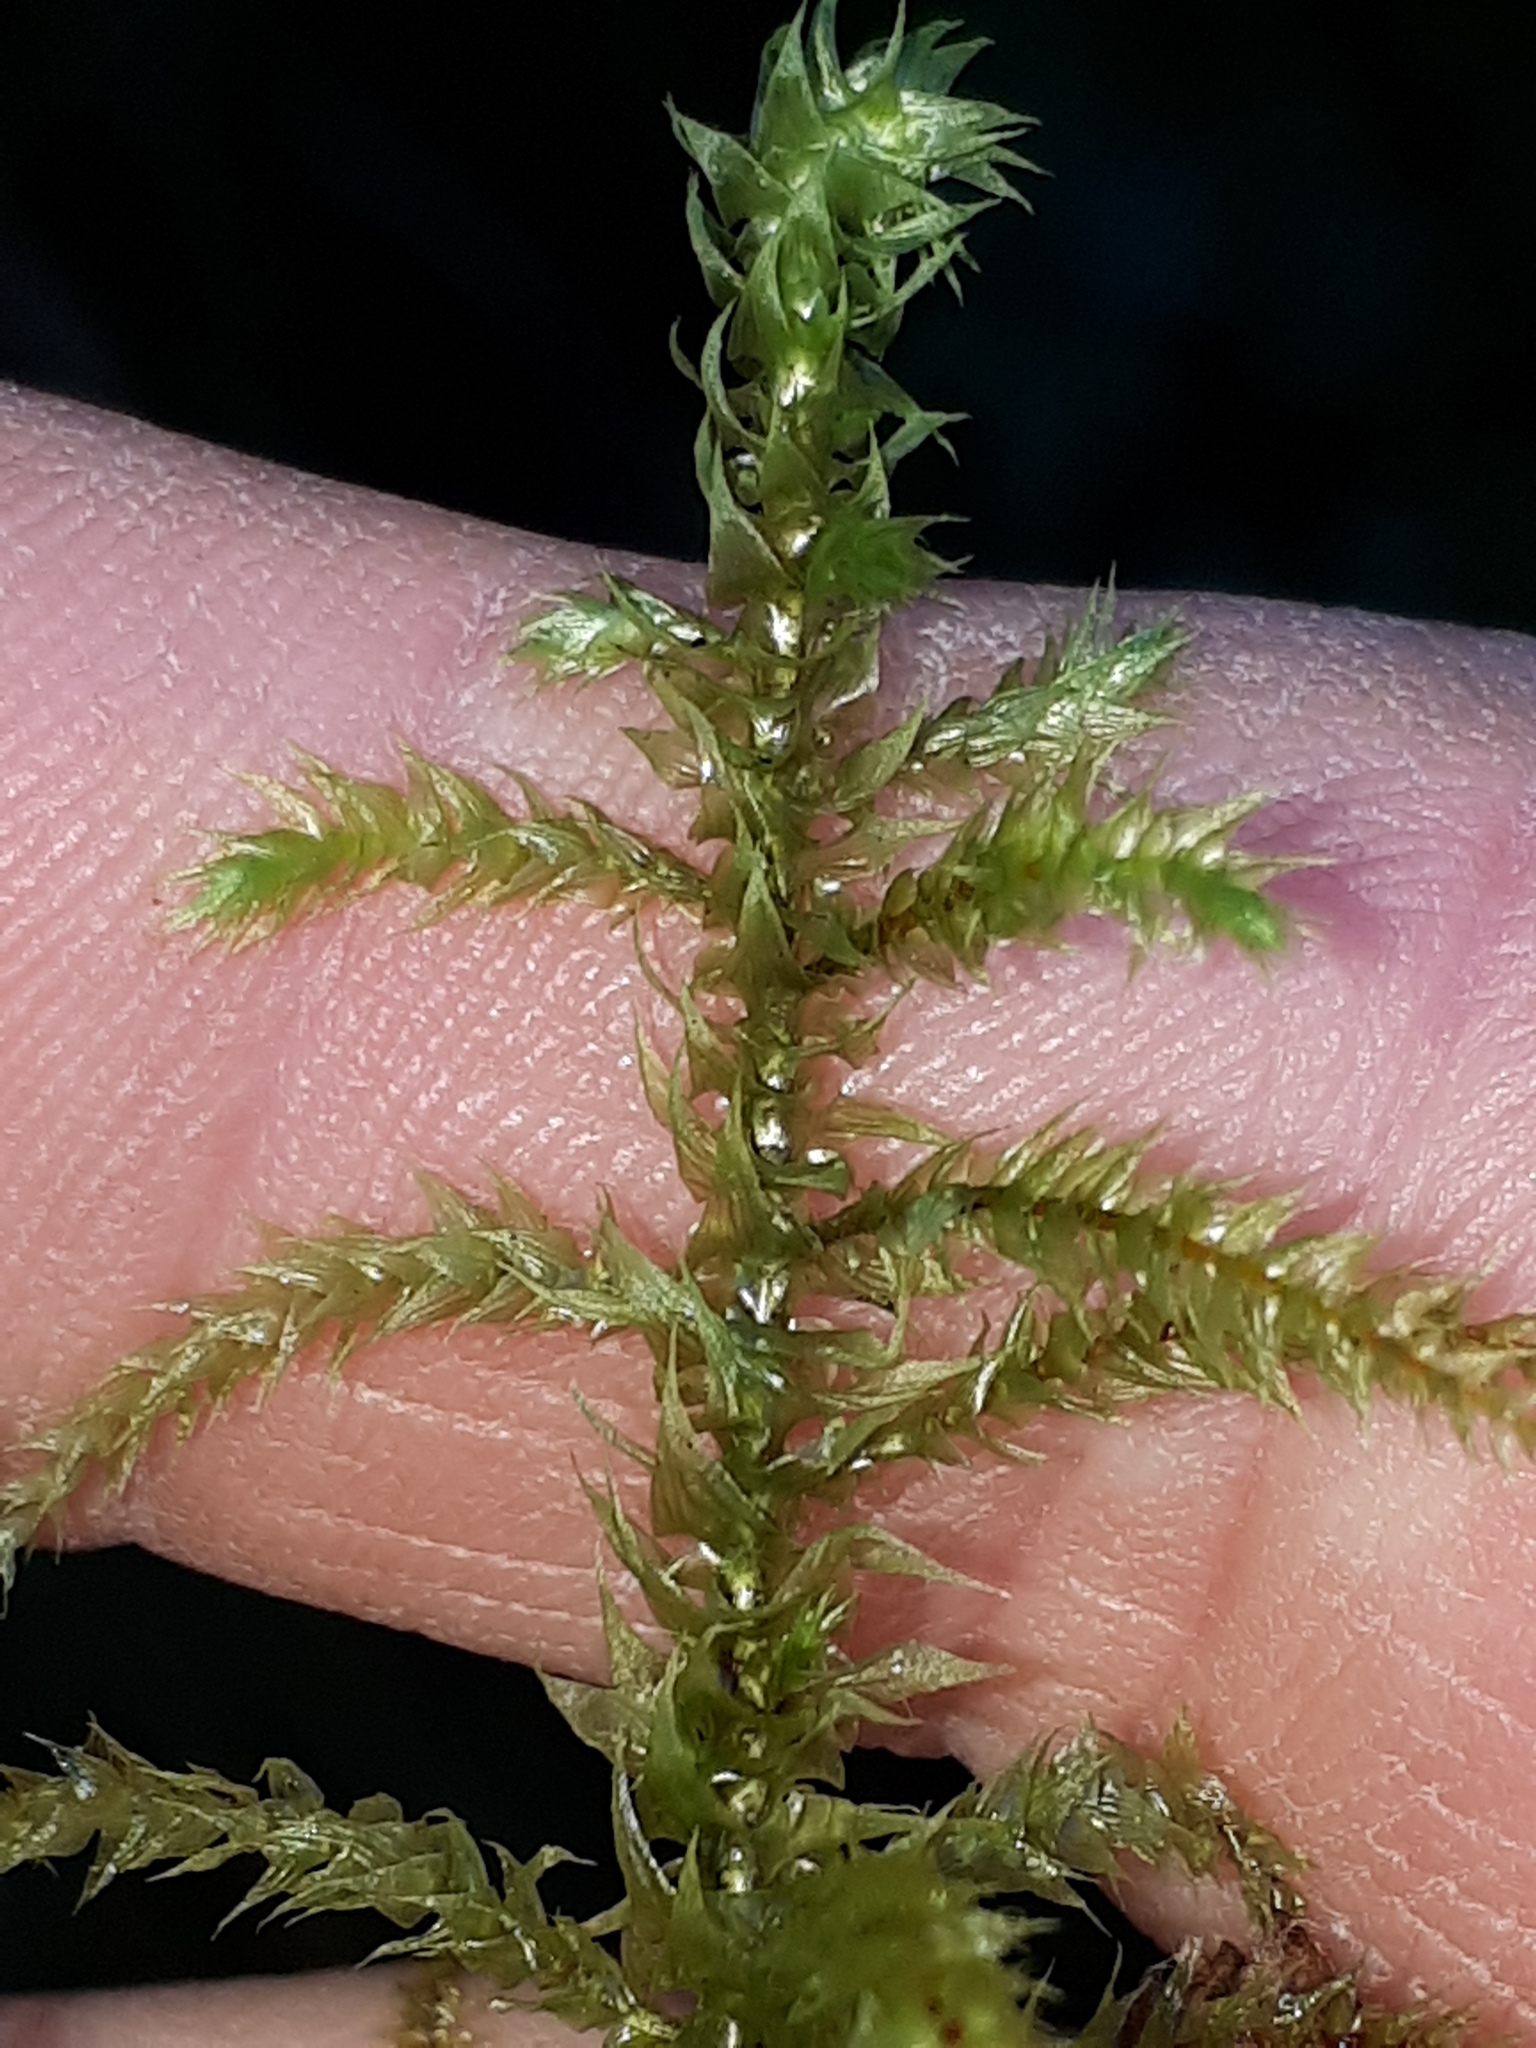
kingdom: Plantae
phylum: Bryophyta
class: Bryopsida
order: Hypnales
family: Hylocomiaceae
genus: Hylocomiadelphus
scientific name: Hylocomiadelphus triquetrus
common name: Rough goose neck moss
